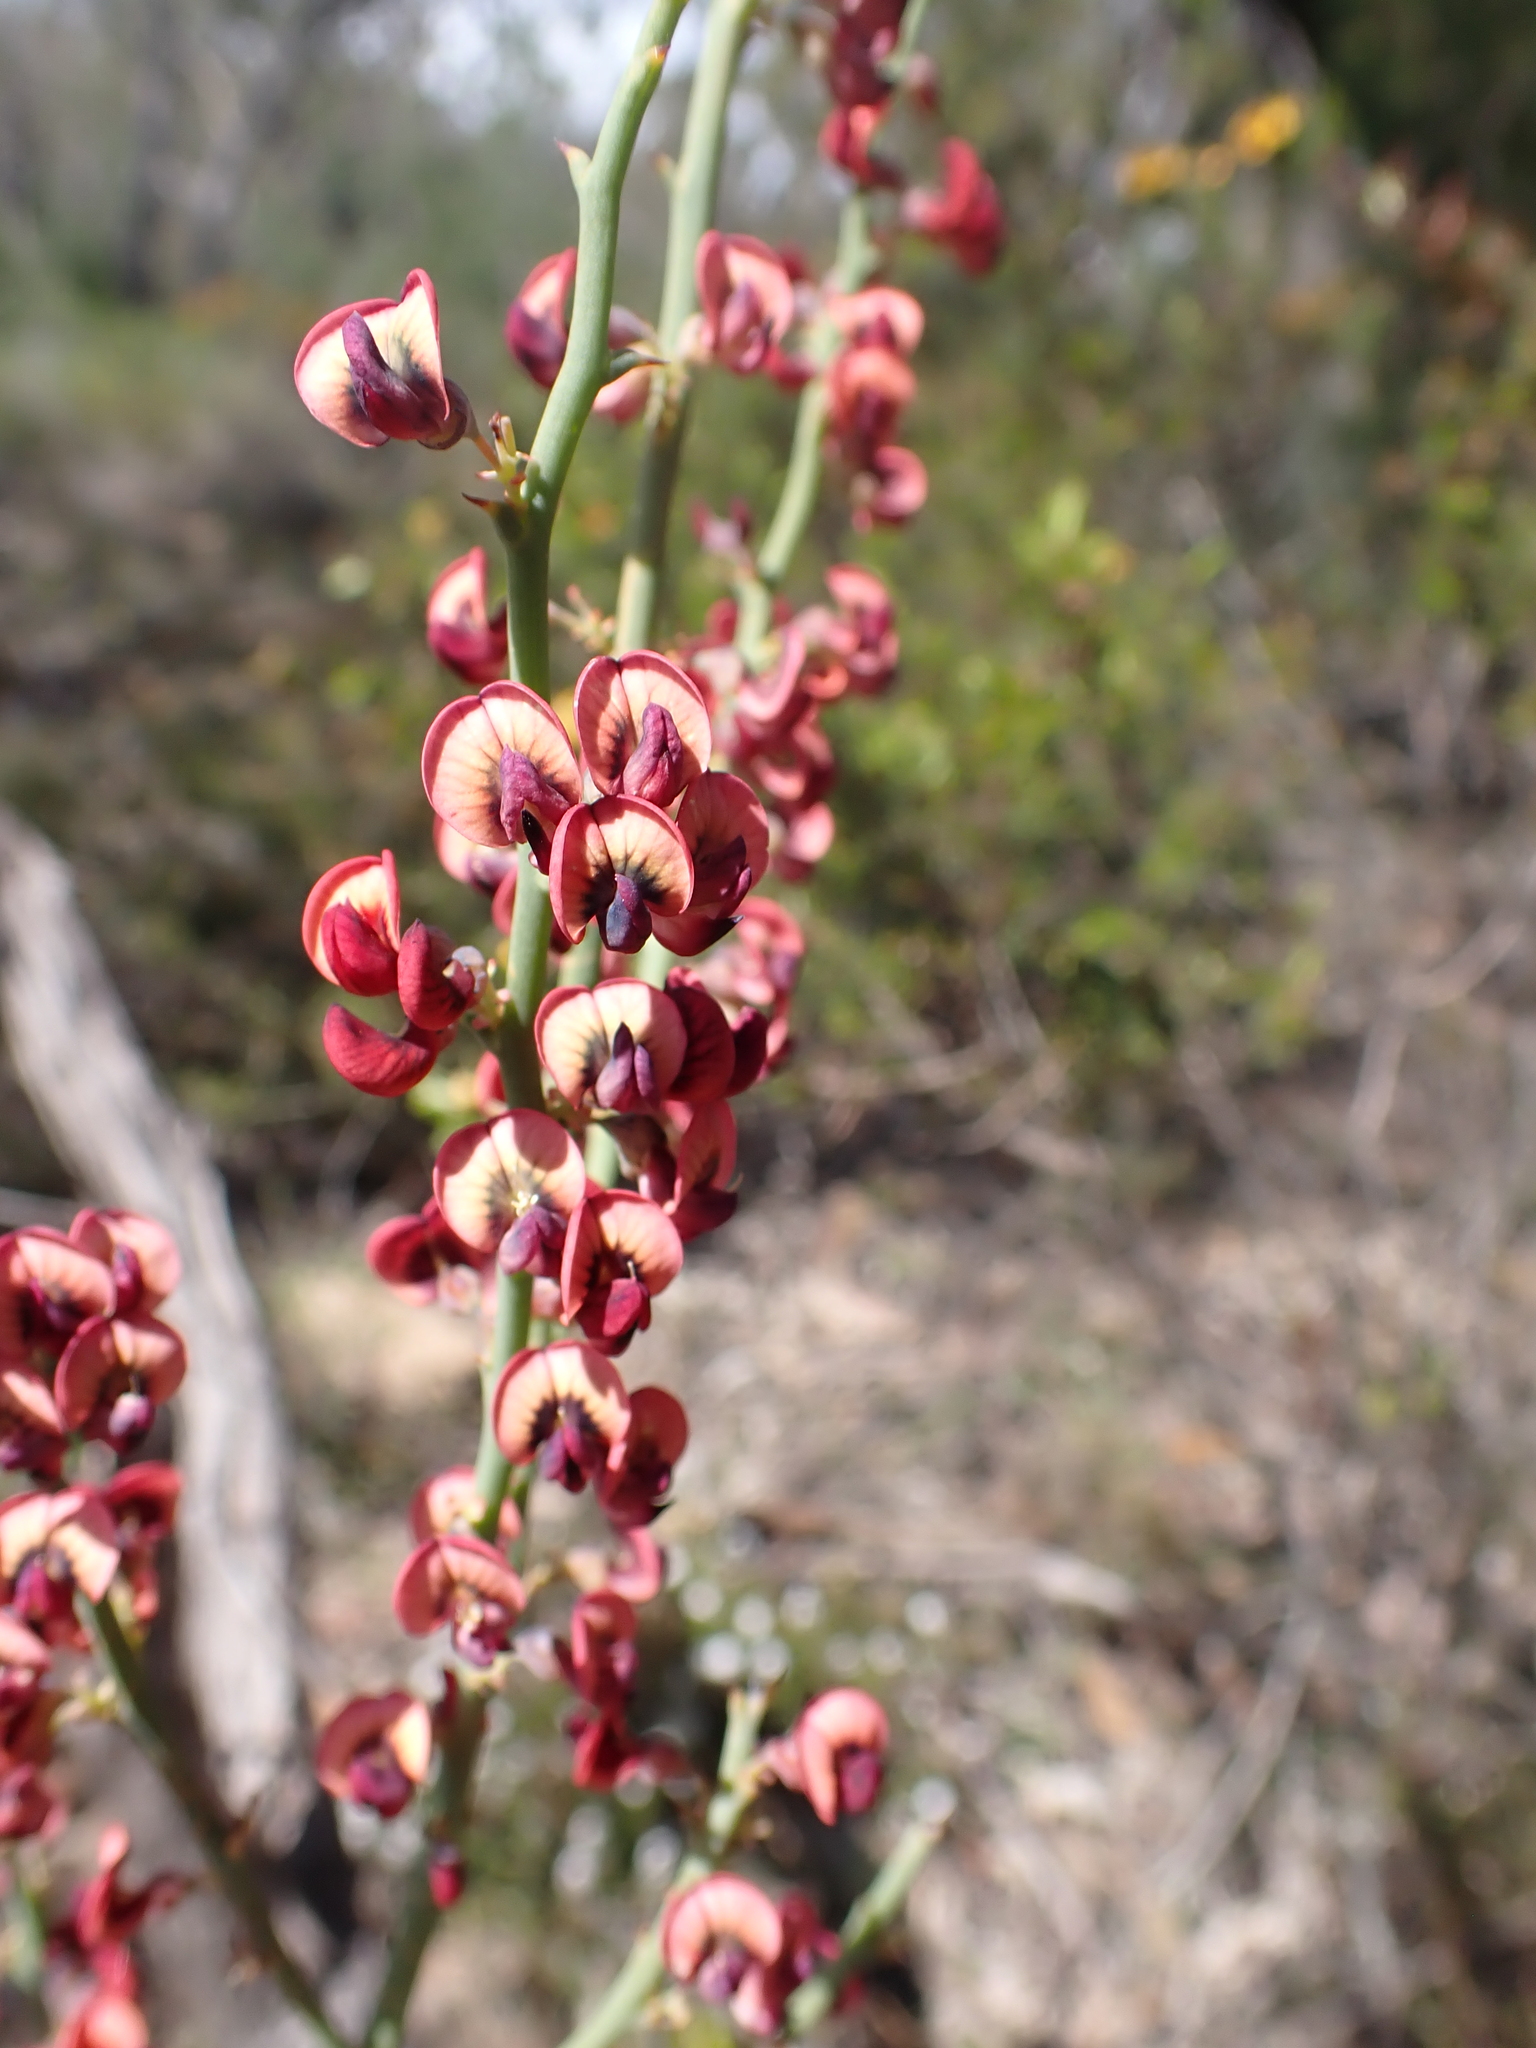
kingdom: Plantae
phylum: Tracheophyta
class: Magnoliopsida
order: Fabales
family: Fabaceae
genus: Daviesia
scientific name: Daviesia brevifolia
